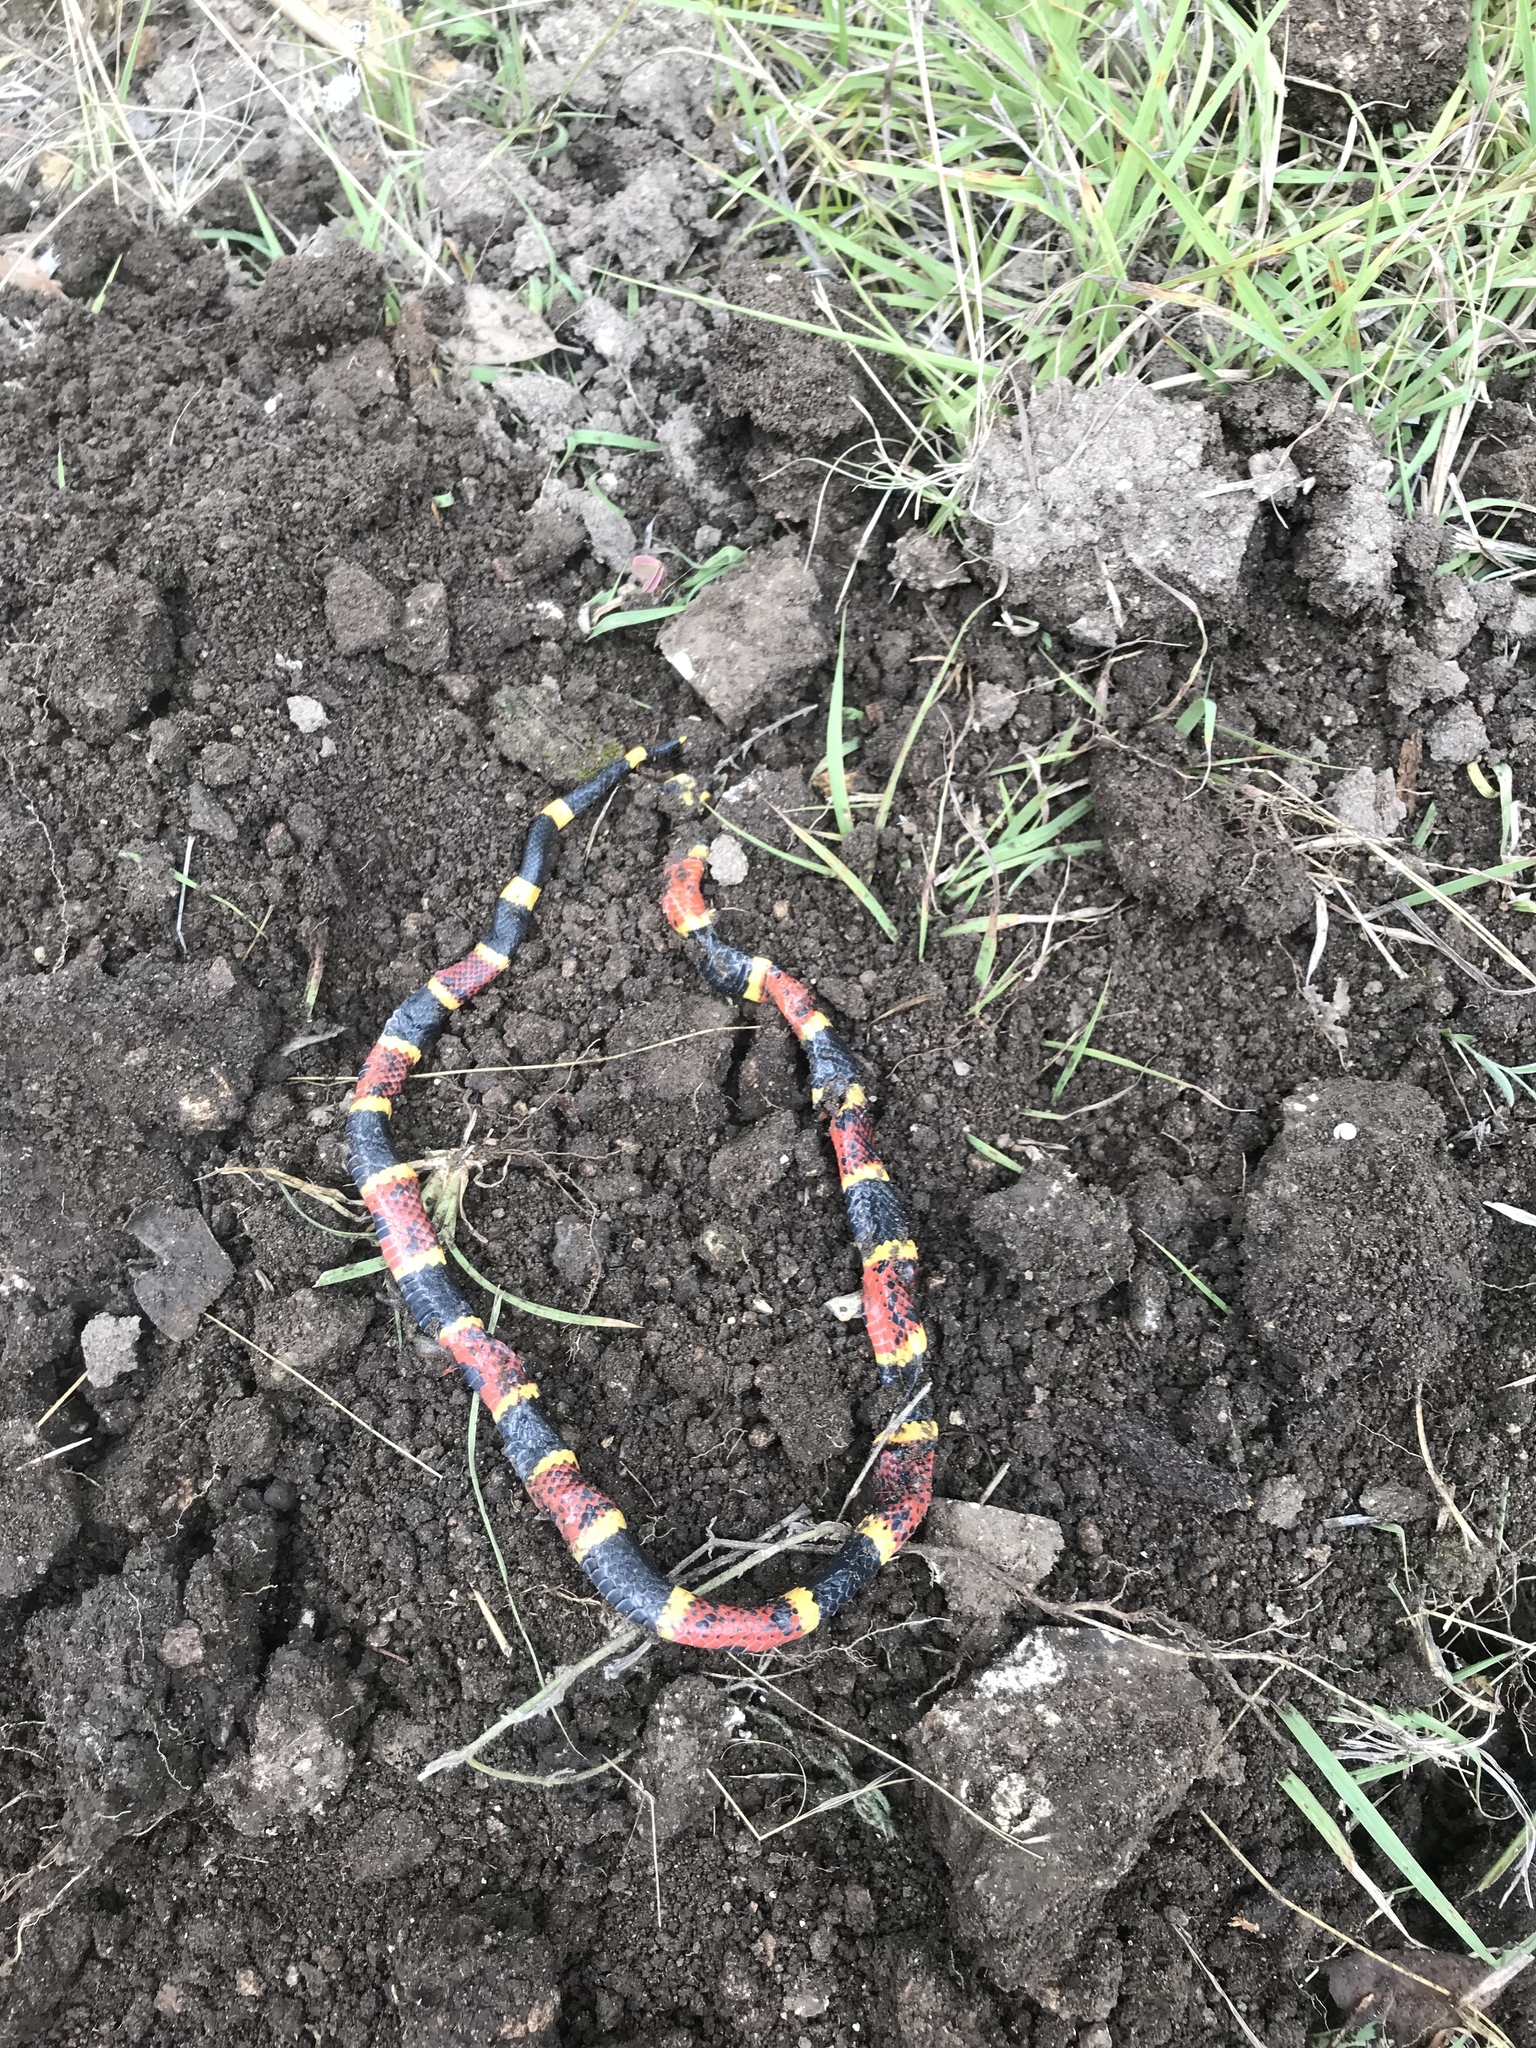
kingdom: Animalia
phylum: Chordata
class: Squamata
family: Elapidae
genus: Micrurus
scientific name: Micrurus tener
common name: Texas coral snake
